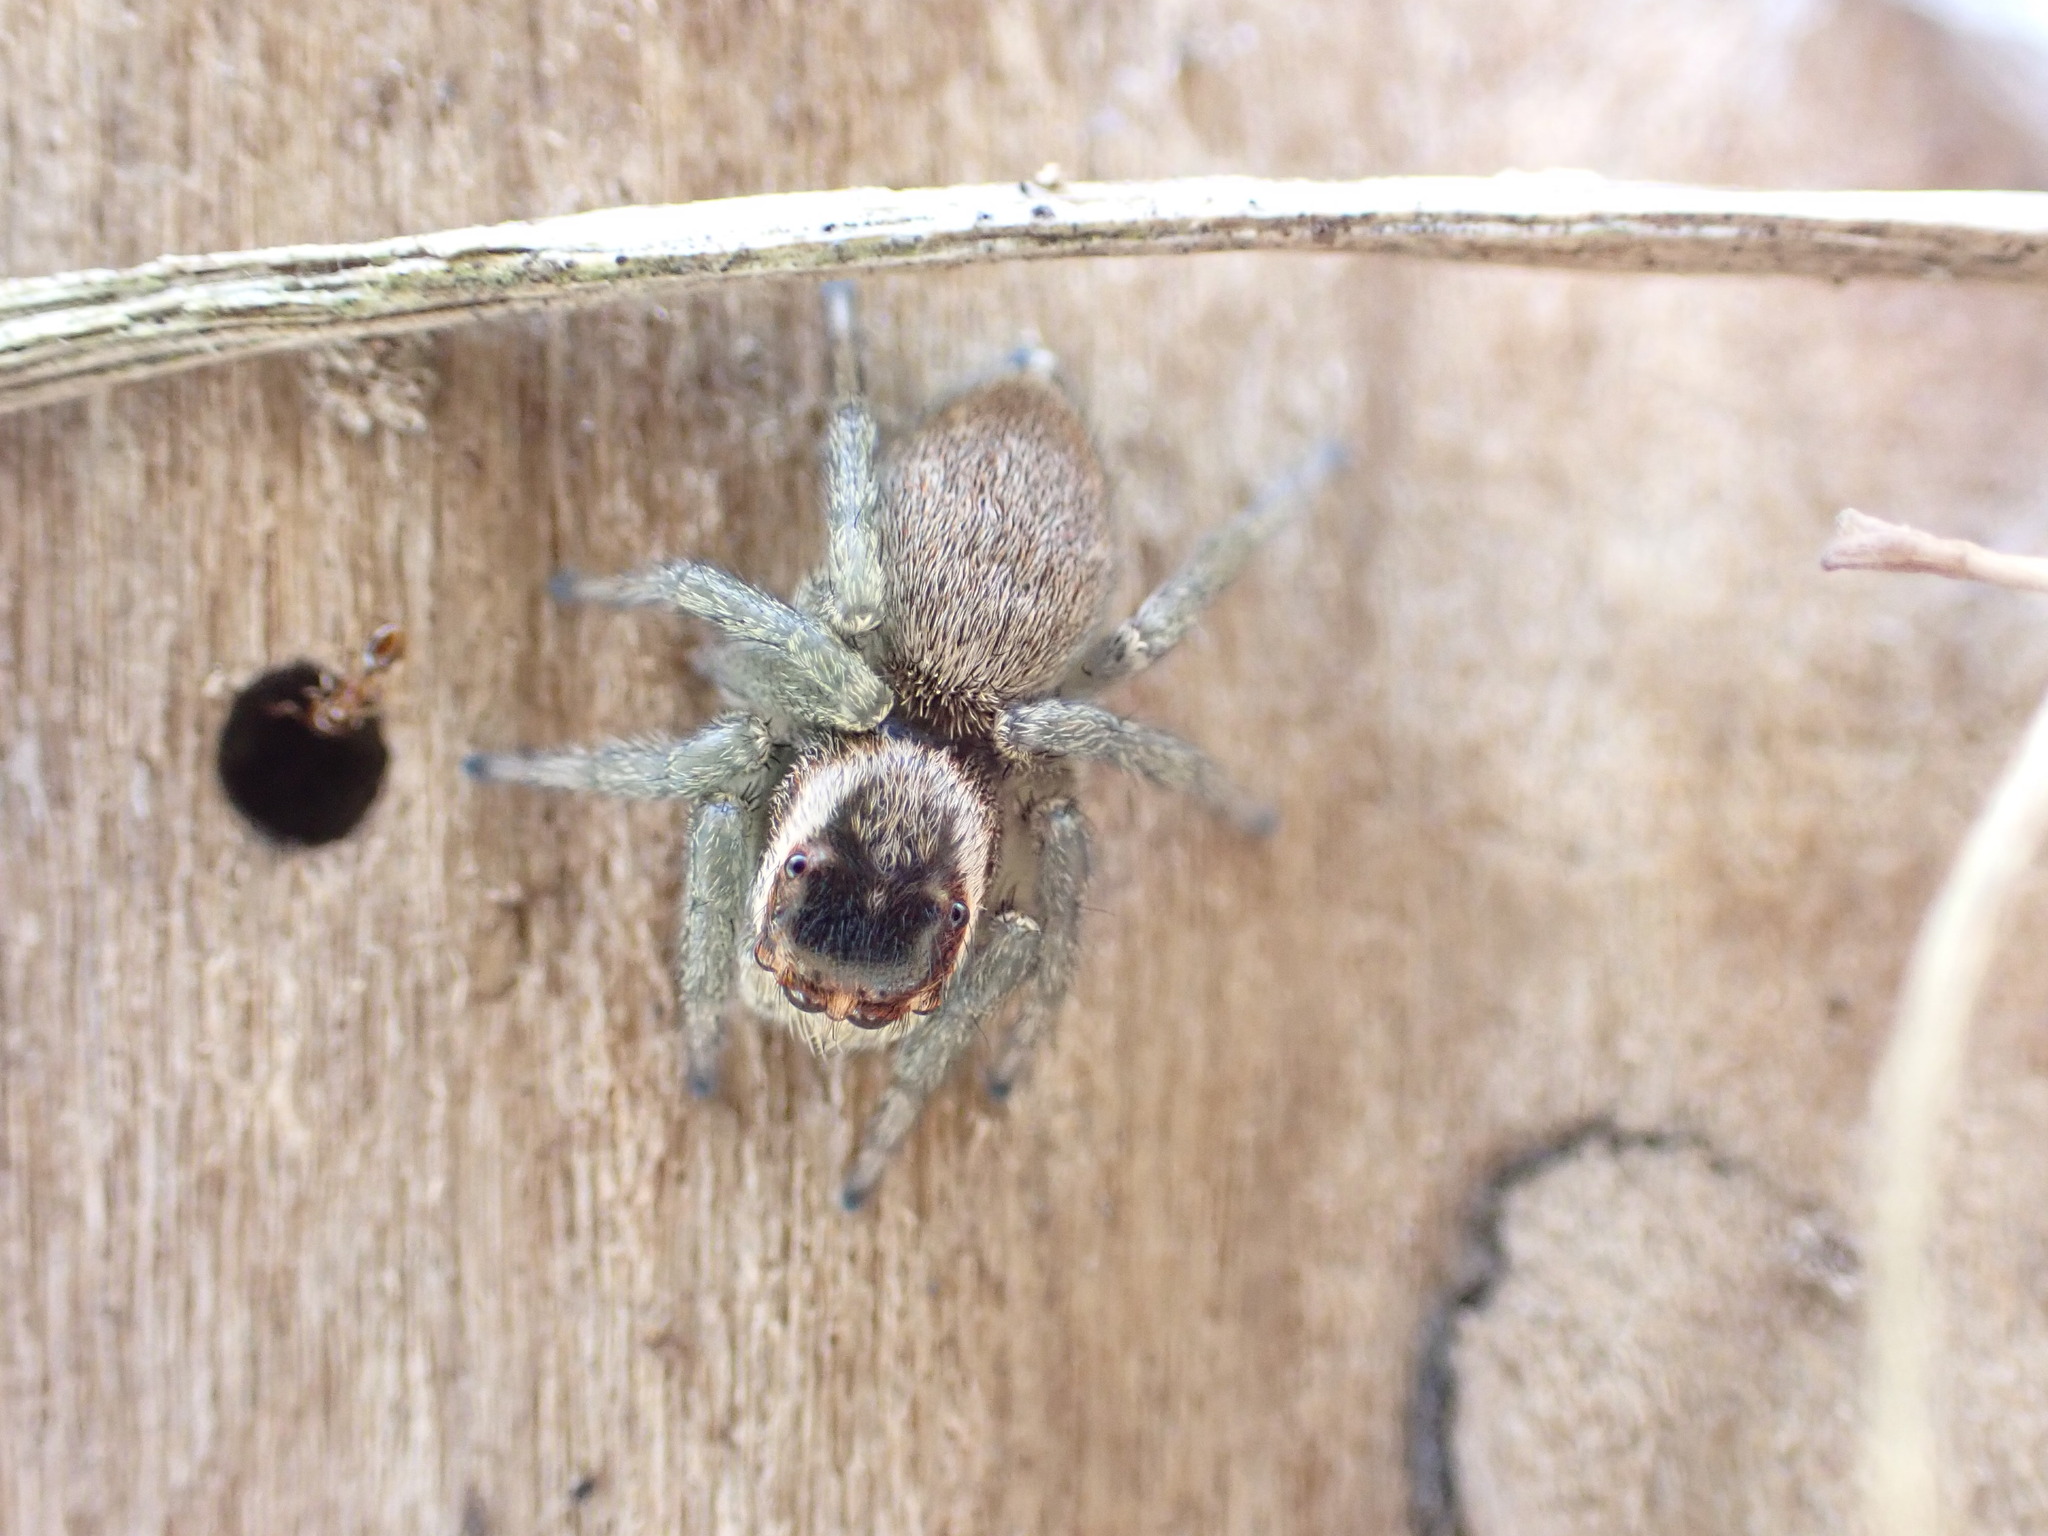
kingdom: Animalia
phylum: Arthropoda
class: Arachnida
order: Araneae
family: Salticidae
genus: Maratus
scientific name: Maratus griseus
